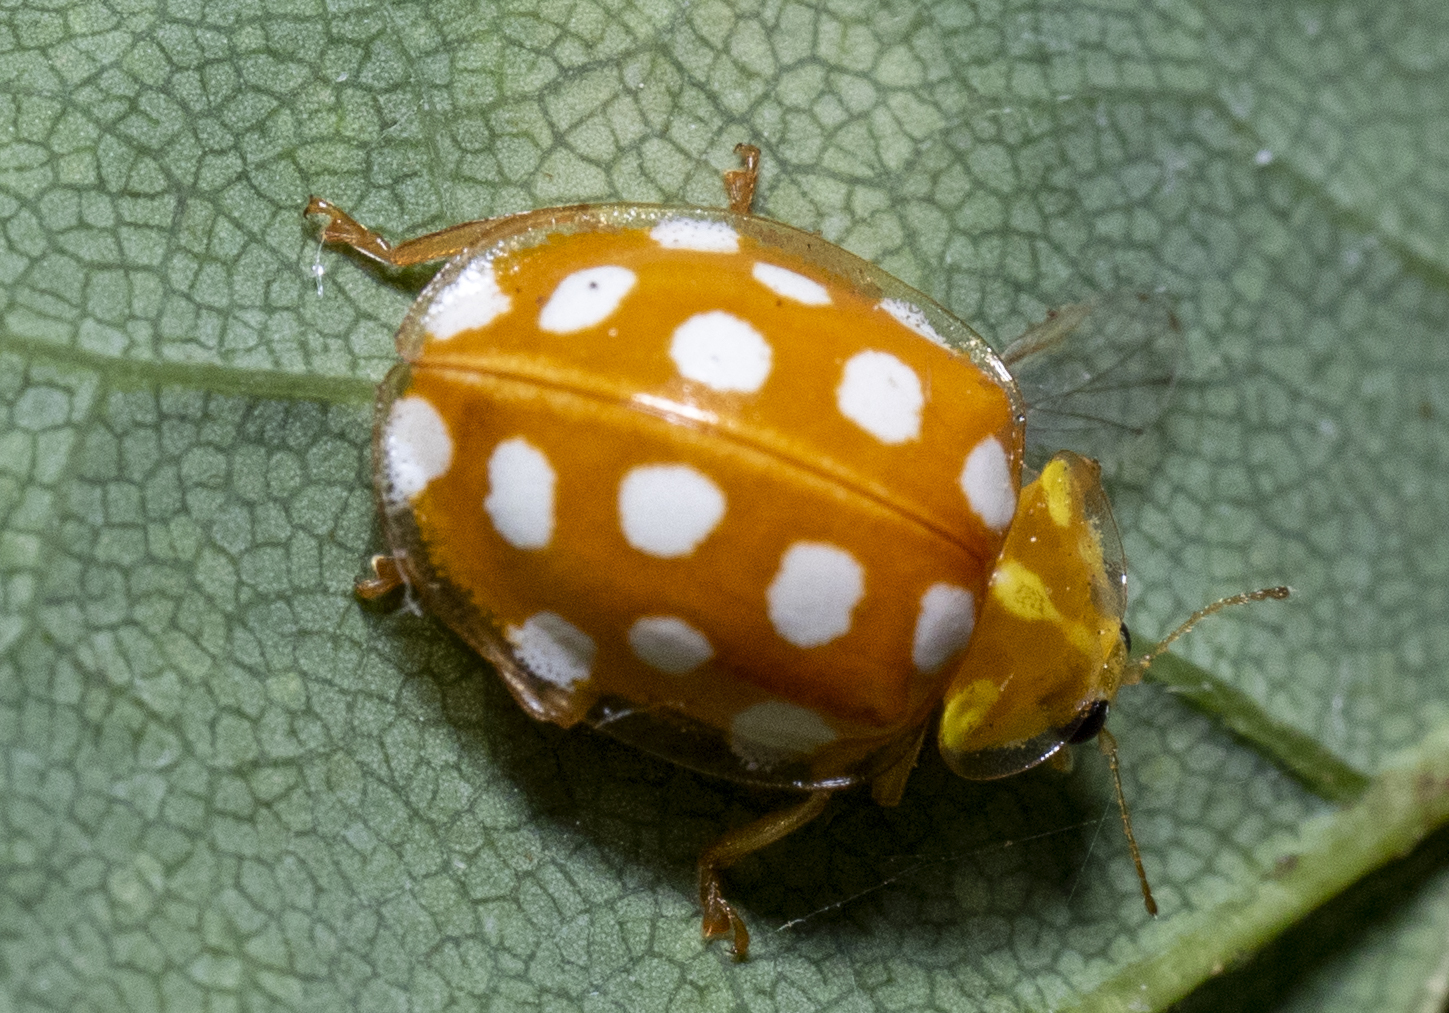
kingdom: Animalia
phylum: Arthropoda
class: Insecta
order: Coleoptera
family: Coccinellidae
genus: Halyzia
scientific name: Halyzia sedecimguttata
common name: Orange ladybird
